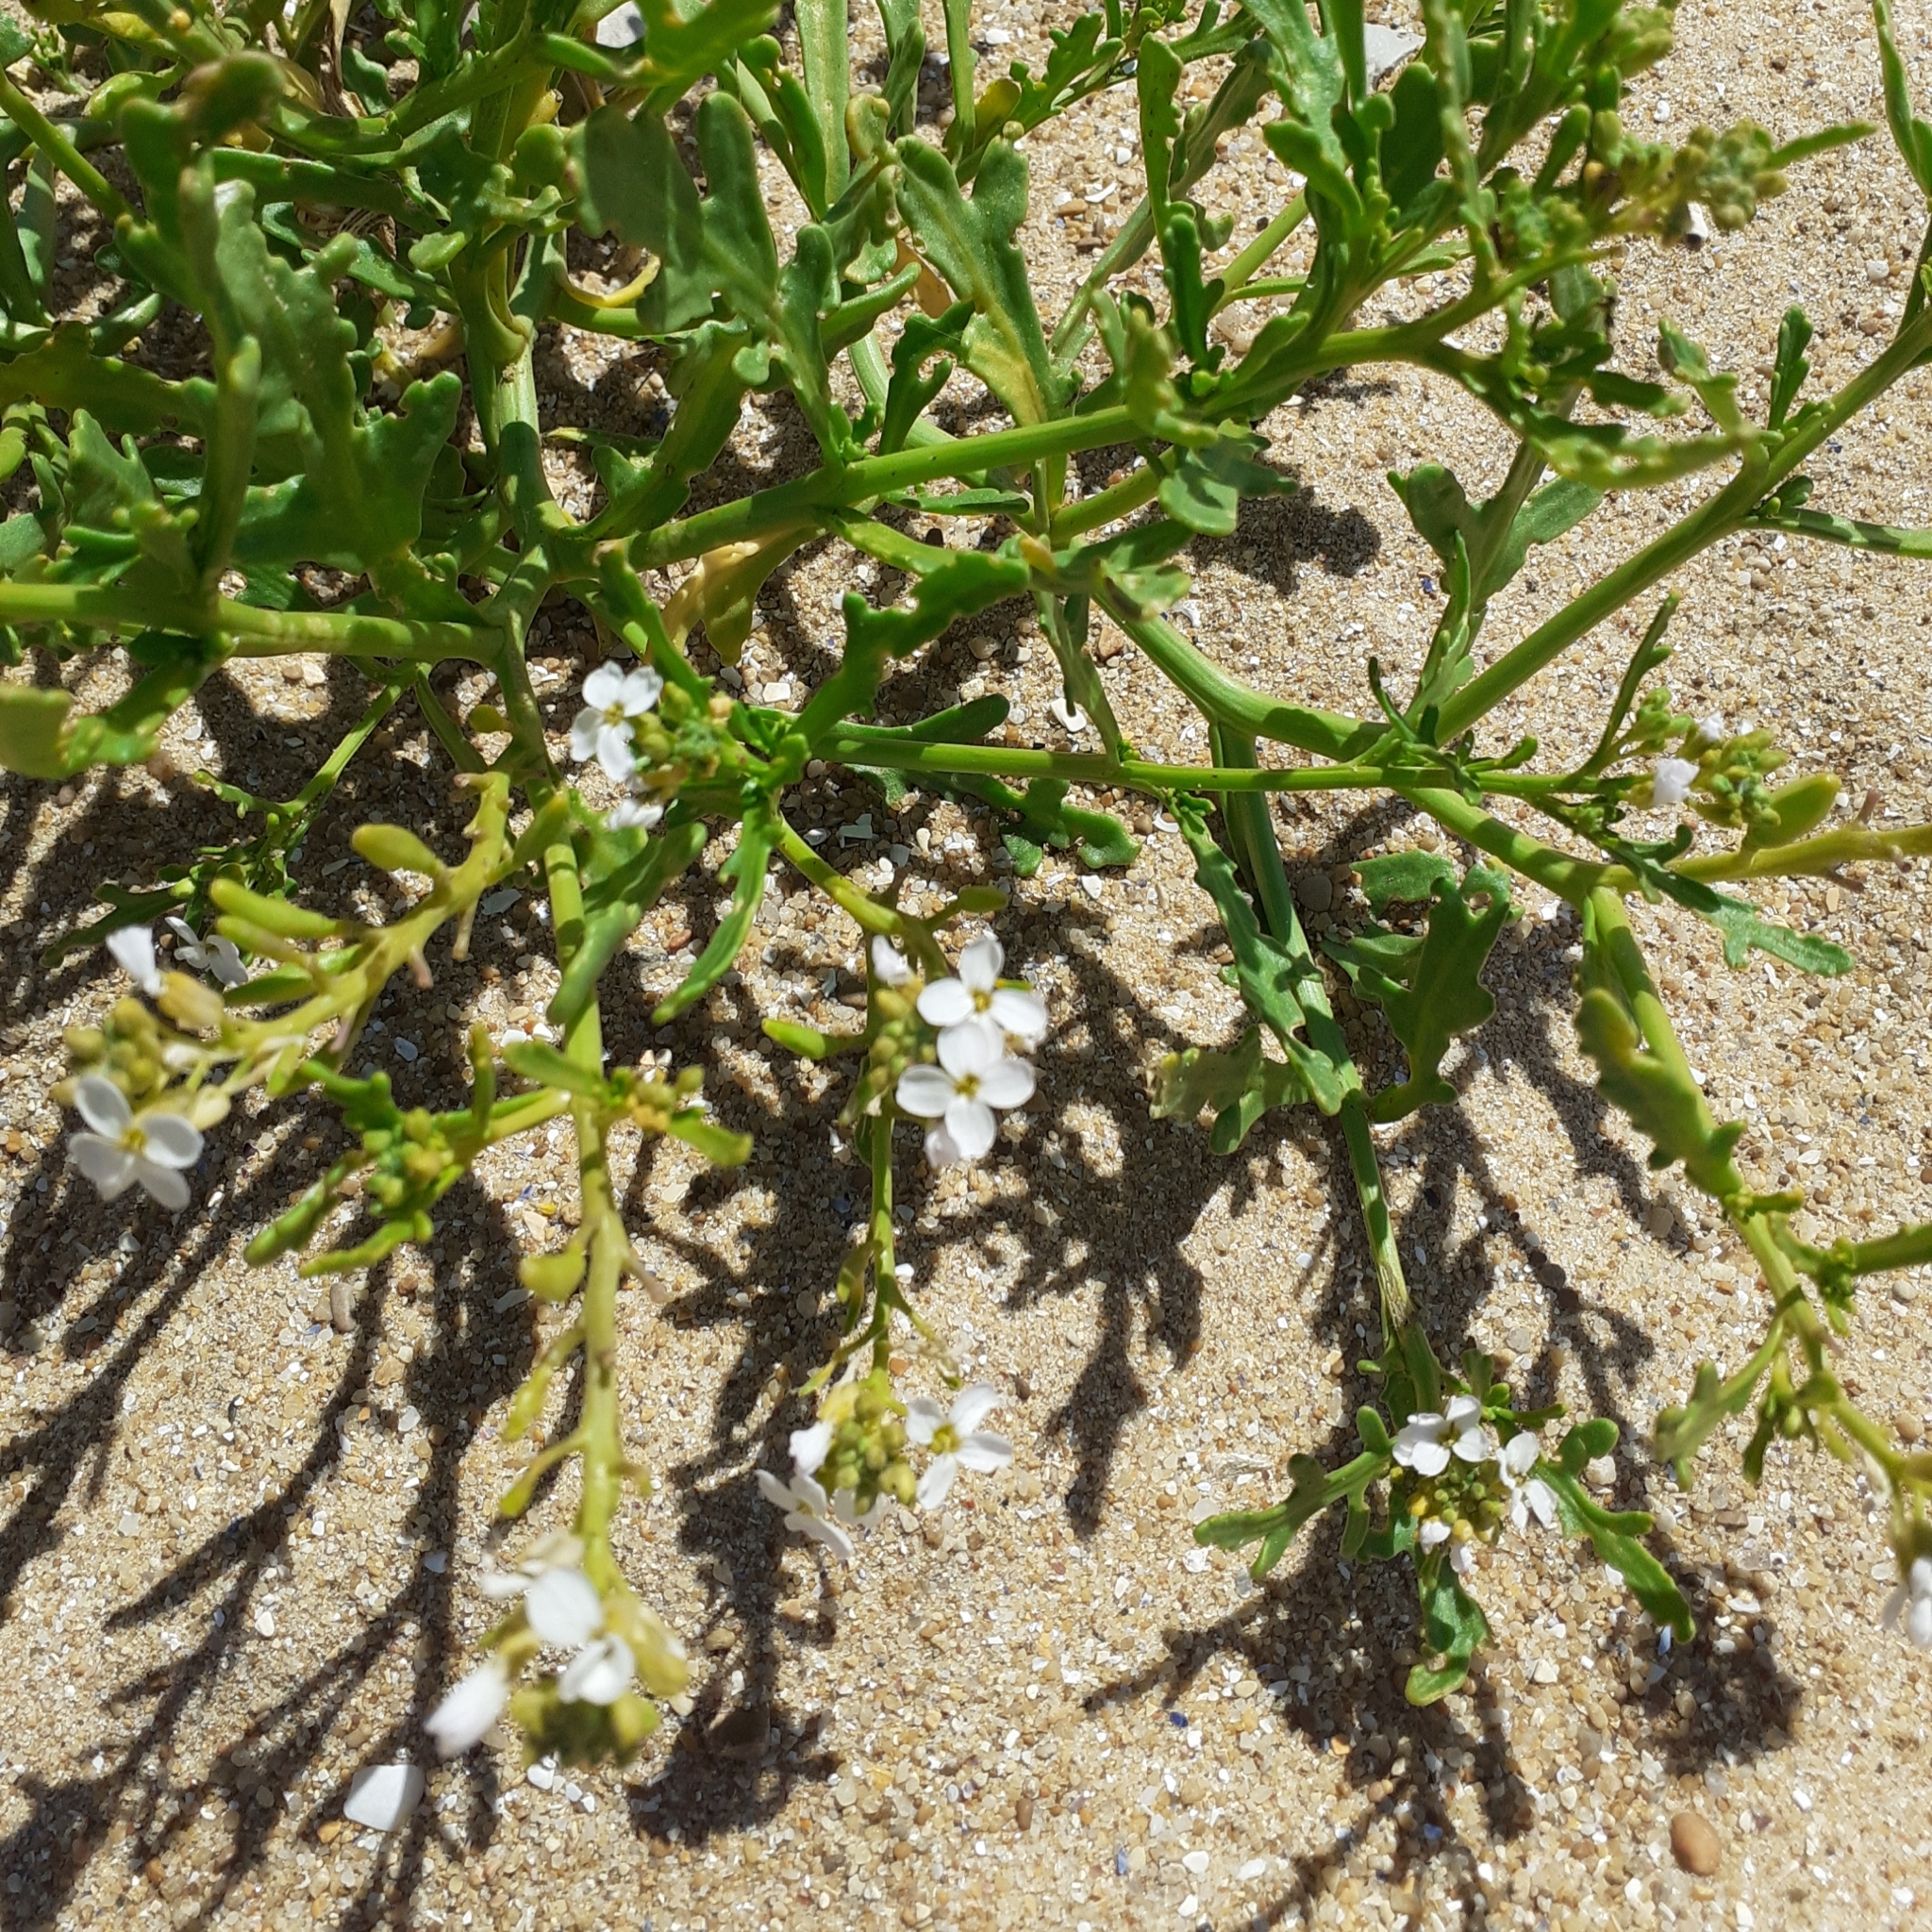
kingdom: Plantae
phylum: Tracheophyta
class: Magnoliopsida
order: Brassicales
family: Brassicaceae
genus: Cakile
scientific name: Cakile maritima
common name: Sea rocket
